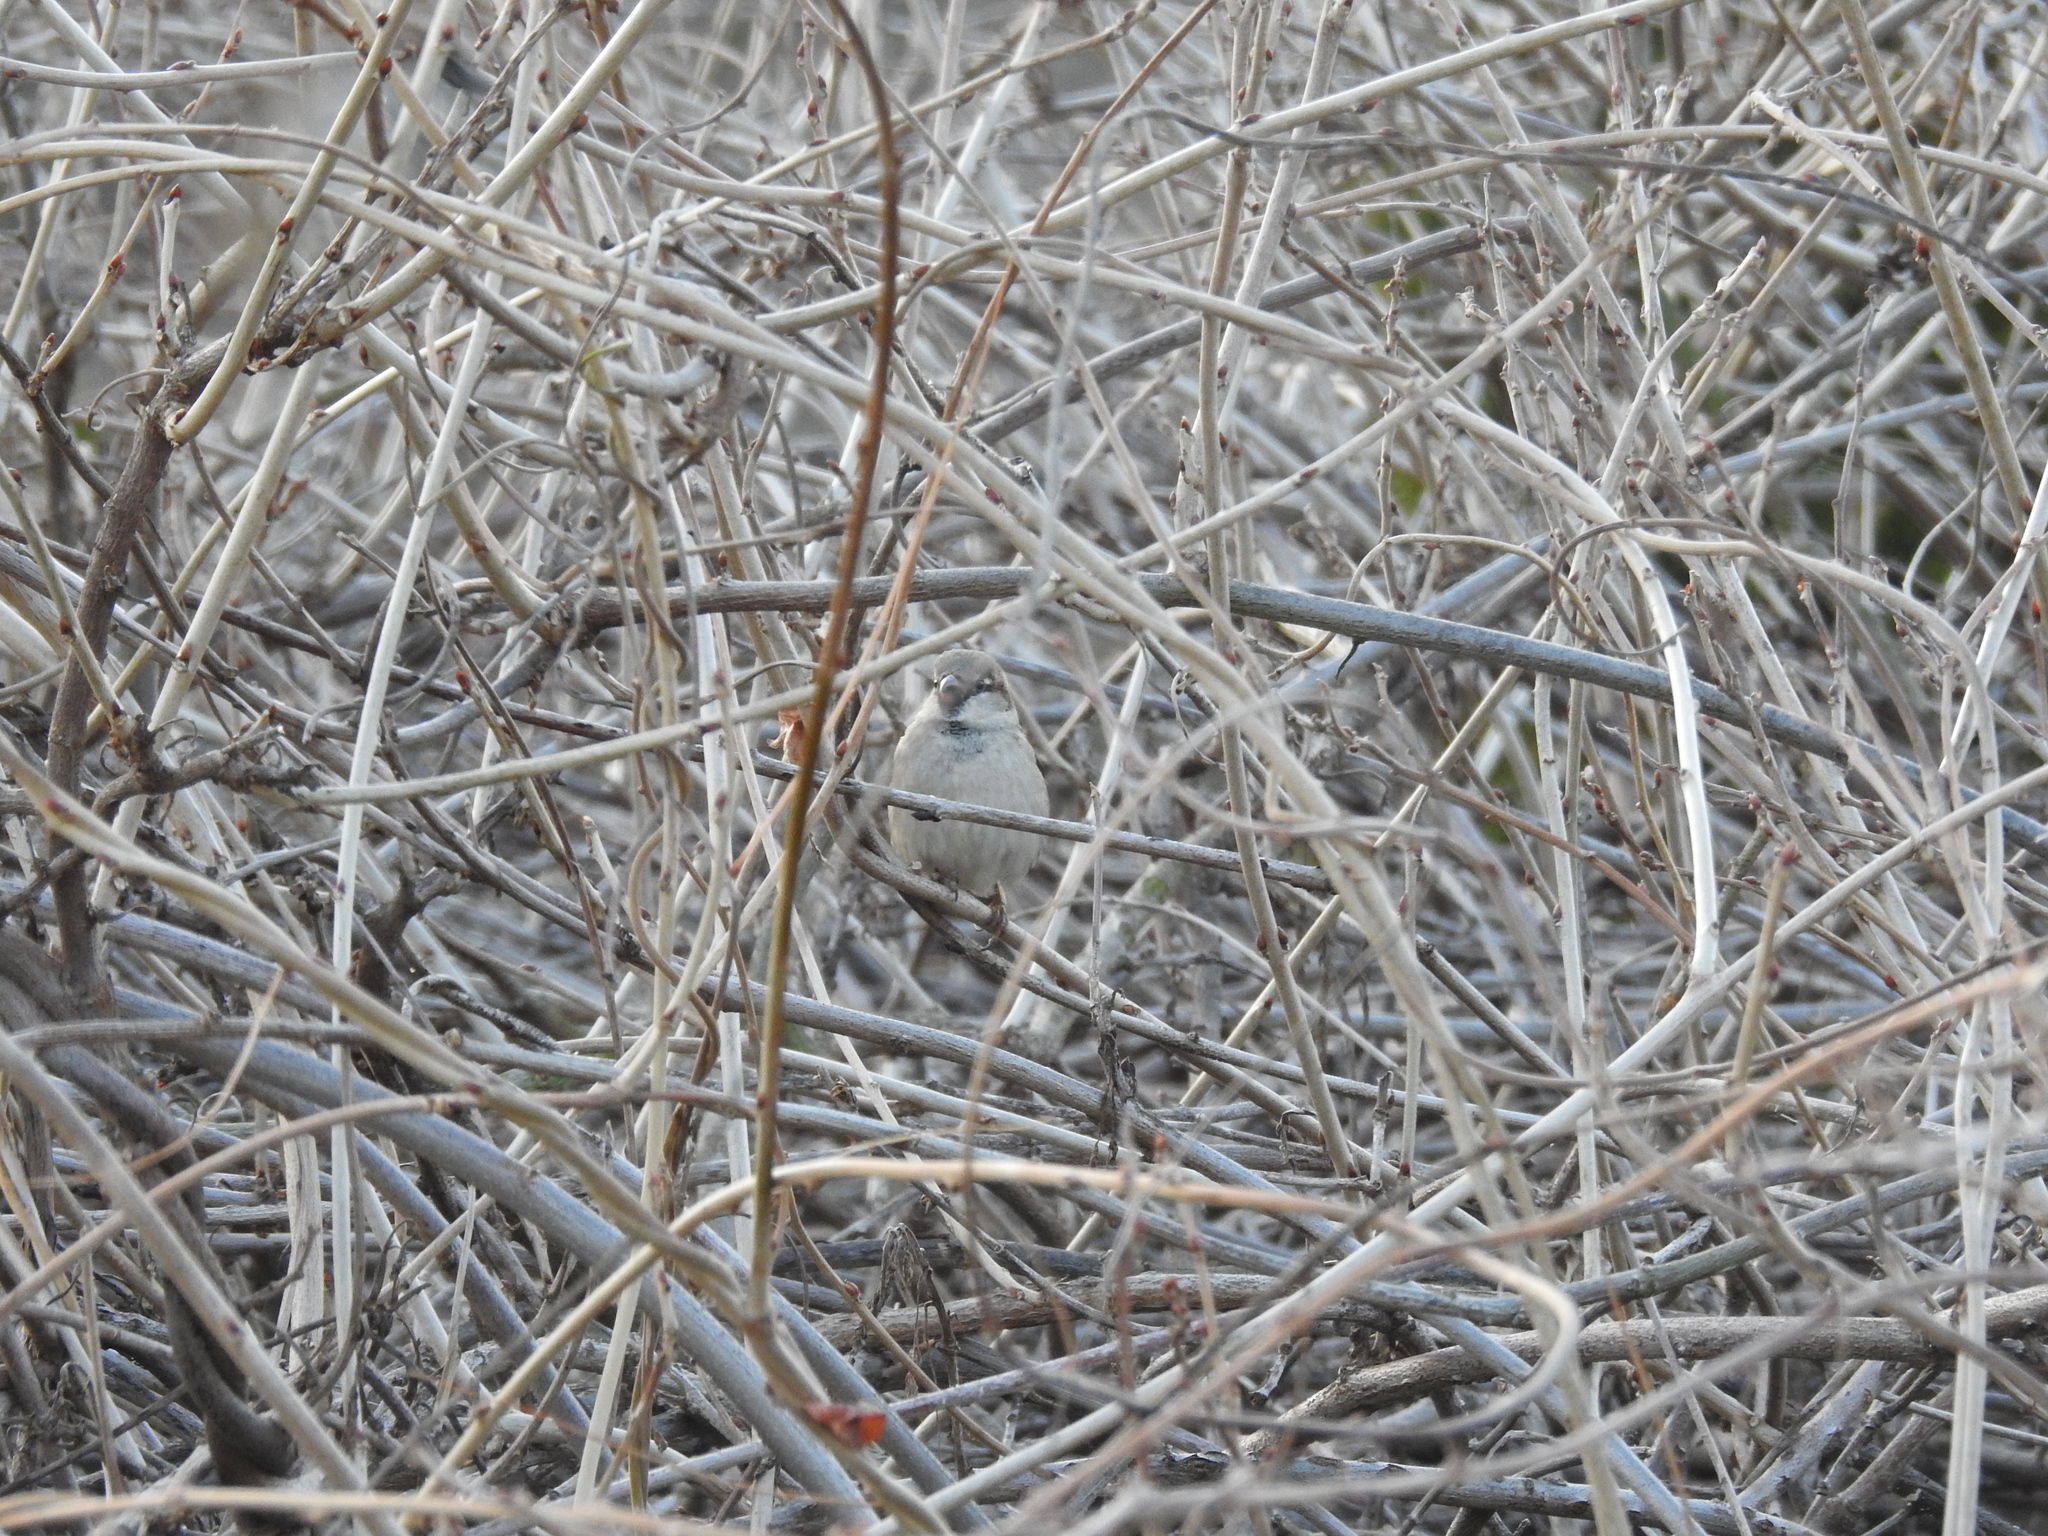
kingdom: Animalia
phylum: Chordata
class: Aves
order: Passeriformes
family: Passeridae
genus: Passer
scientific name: Passer domesticus
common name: House sparrow
